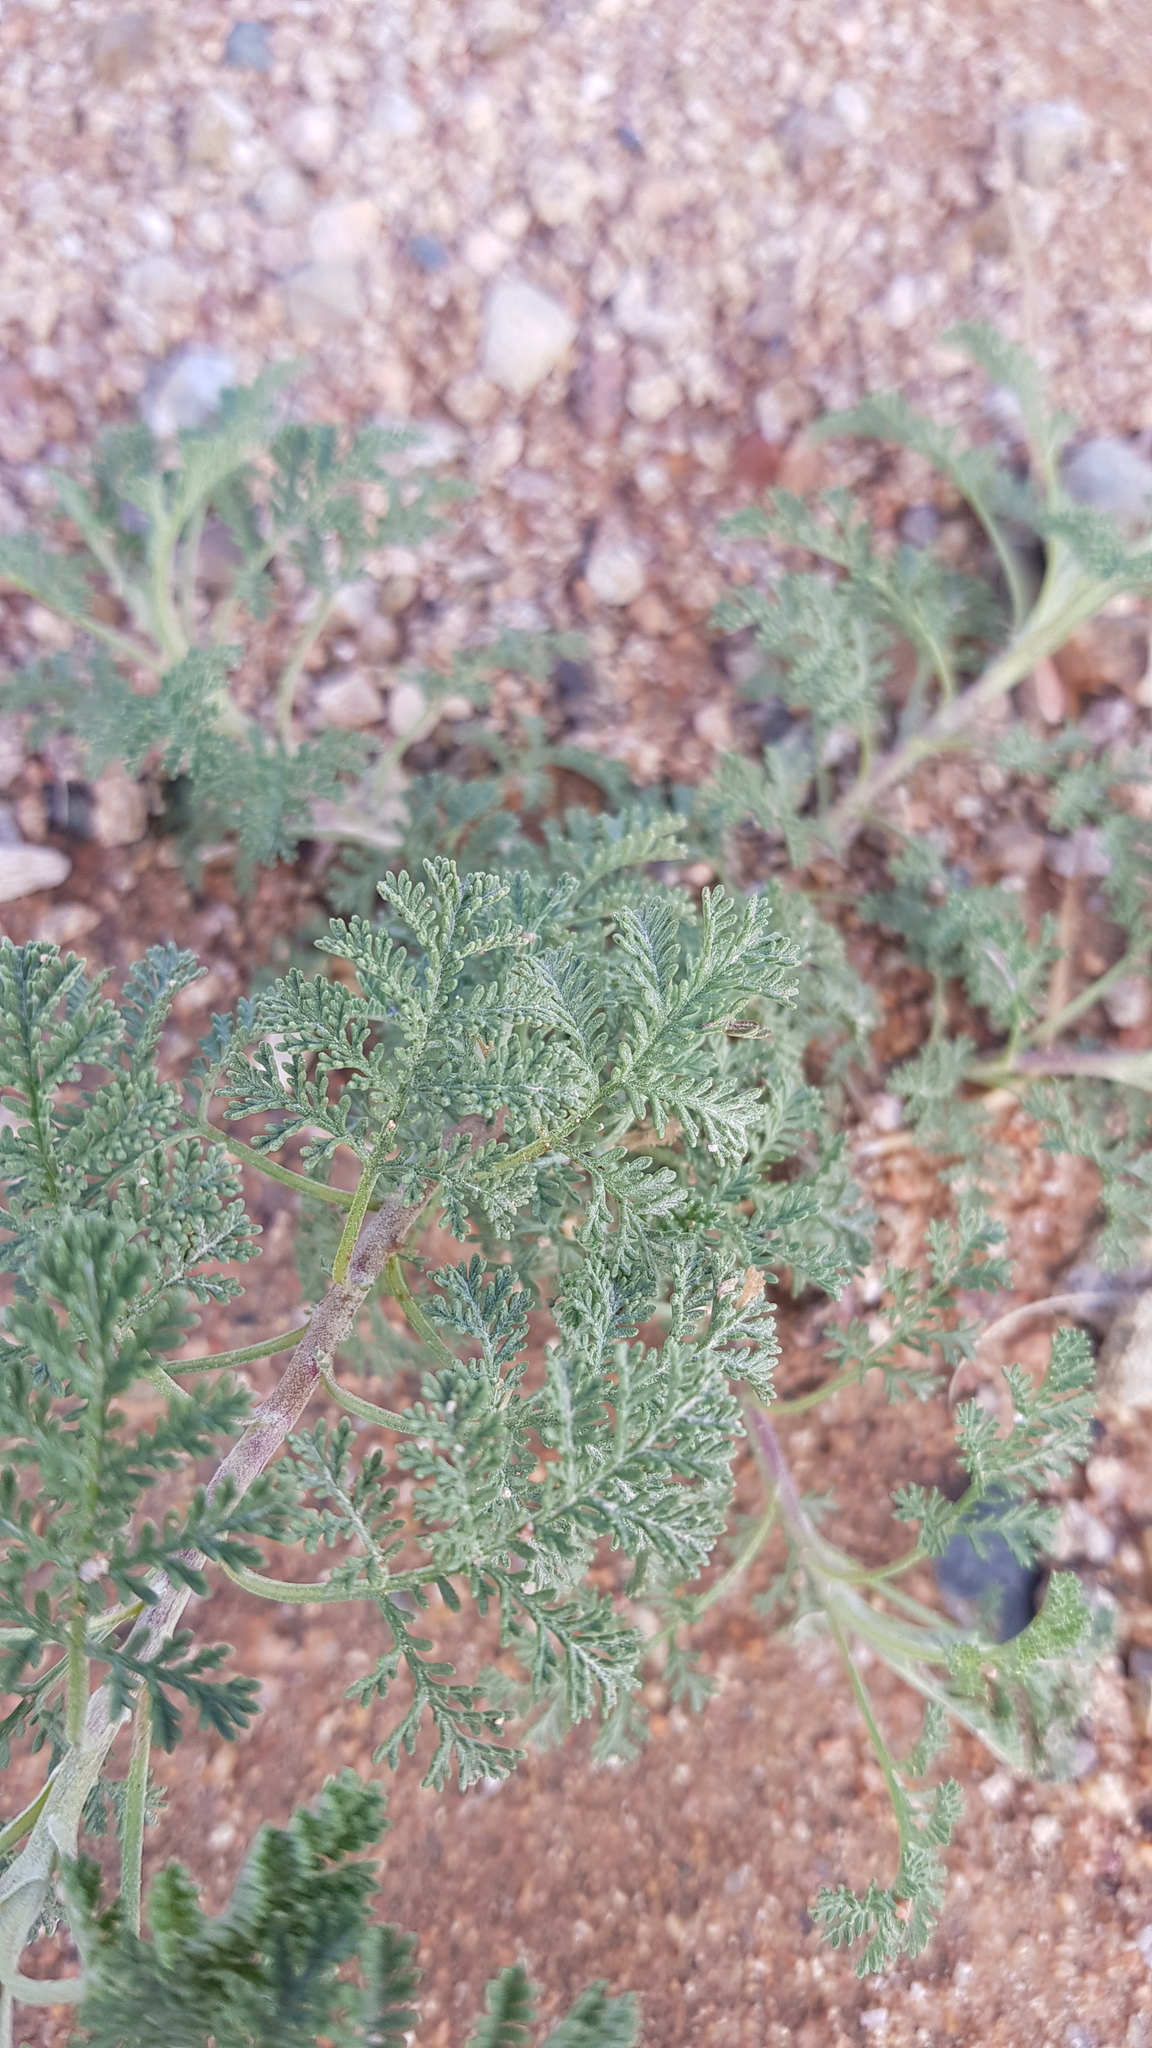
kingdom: Plantae
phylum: Tracheophyta
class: Magnoliopsida
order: Asterales
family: Asteraceae
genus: Artemisia
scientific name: Artemisia
